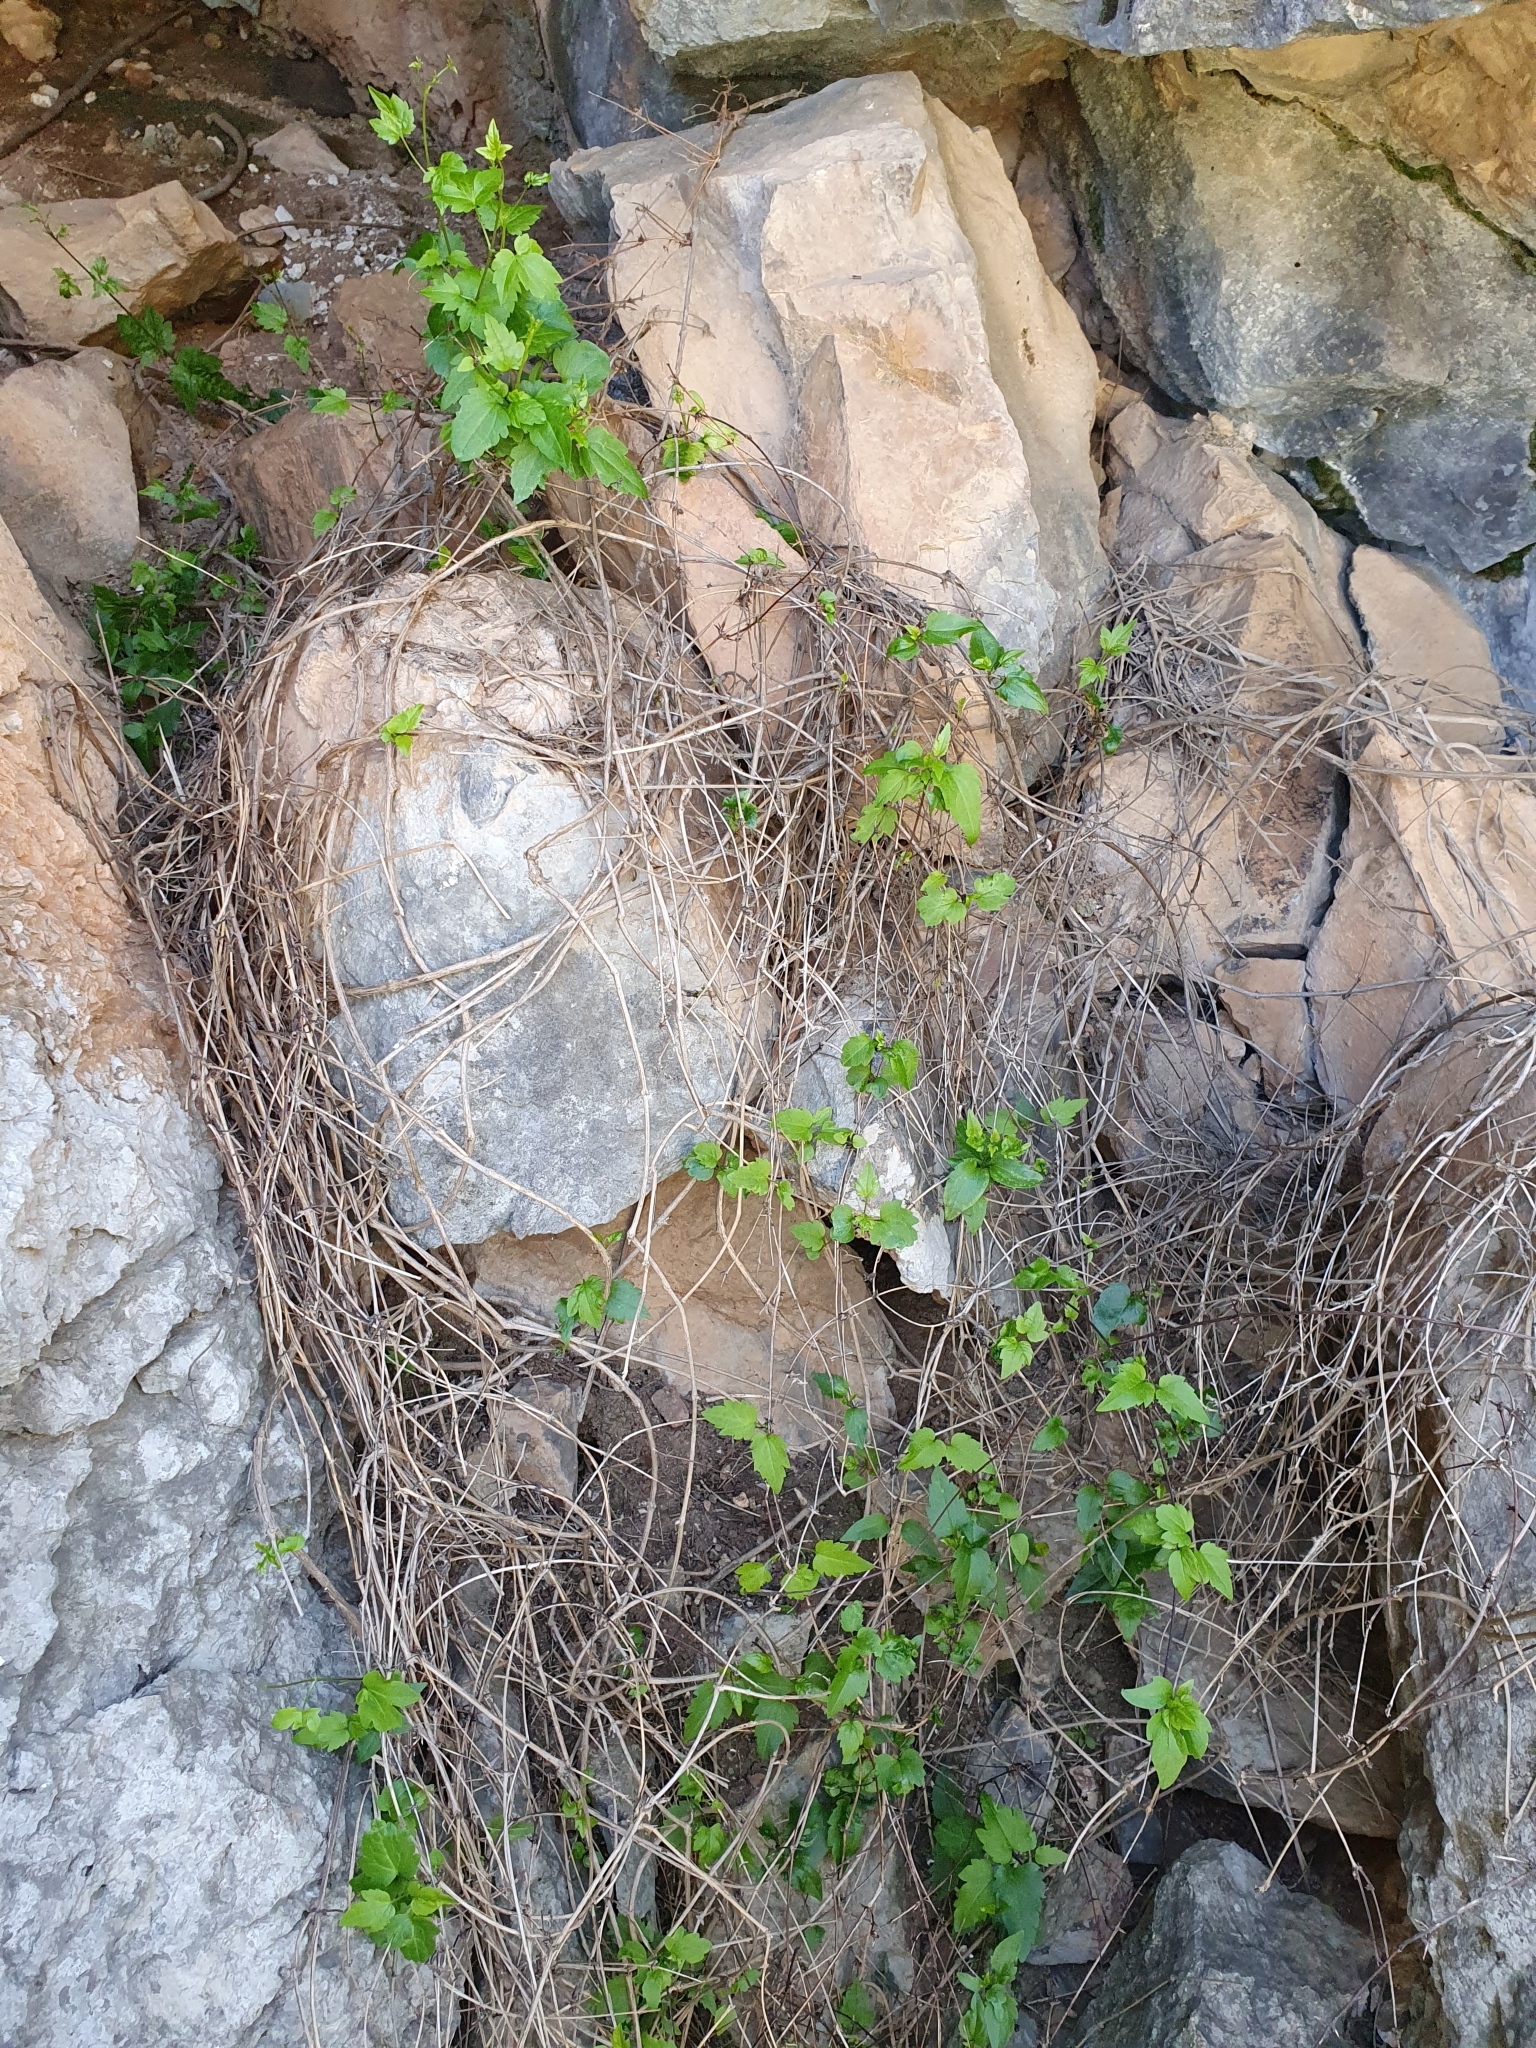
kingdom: Plantae
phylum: Tracheophyta
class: Magnoliopsida
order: Ranunculales
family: Ranunculaceae
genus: Clematis
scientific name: Clematis cirrhosa
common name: Early virgin's-bower
